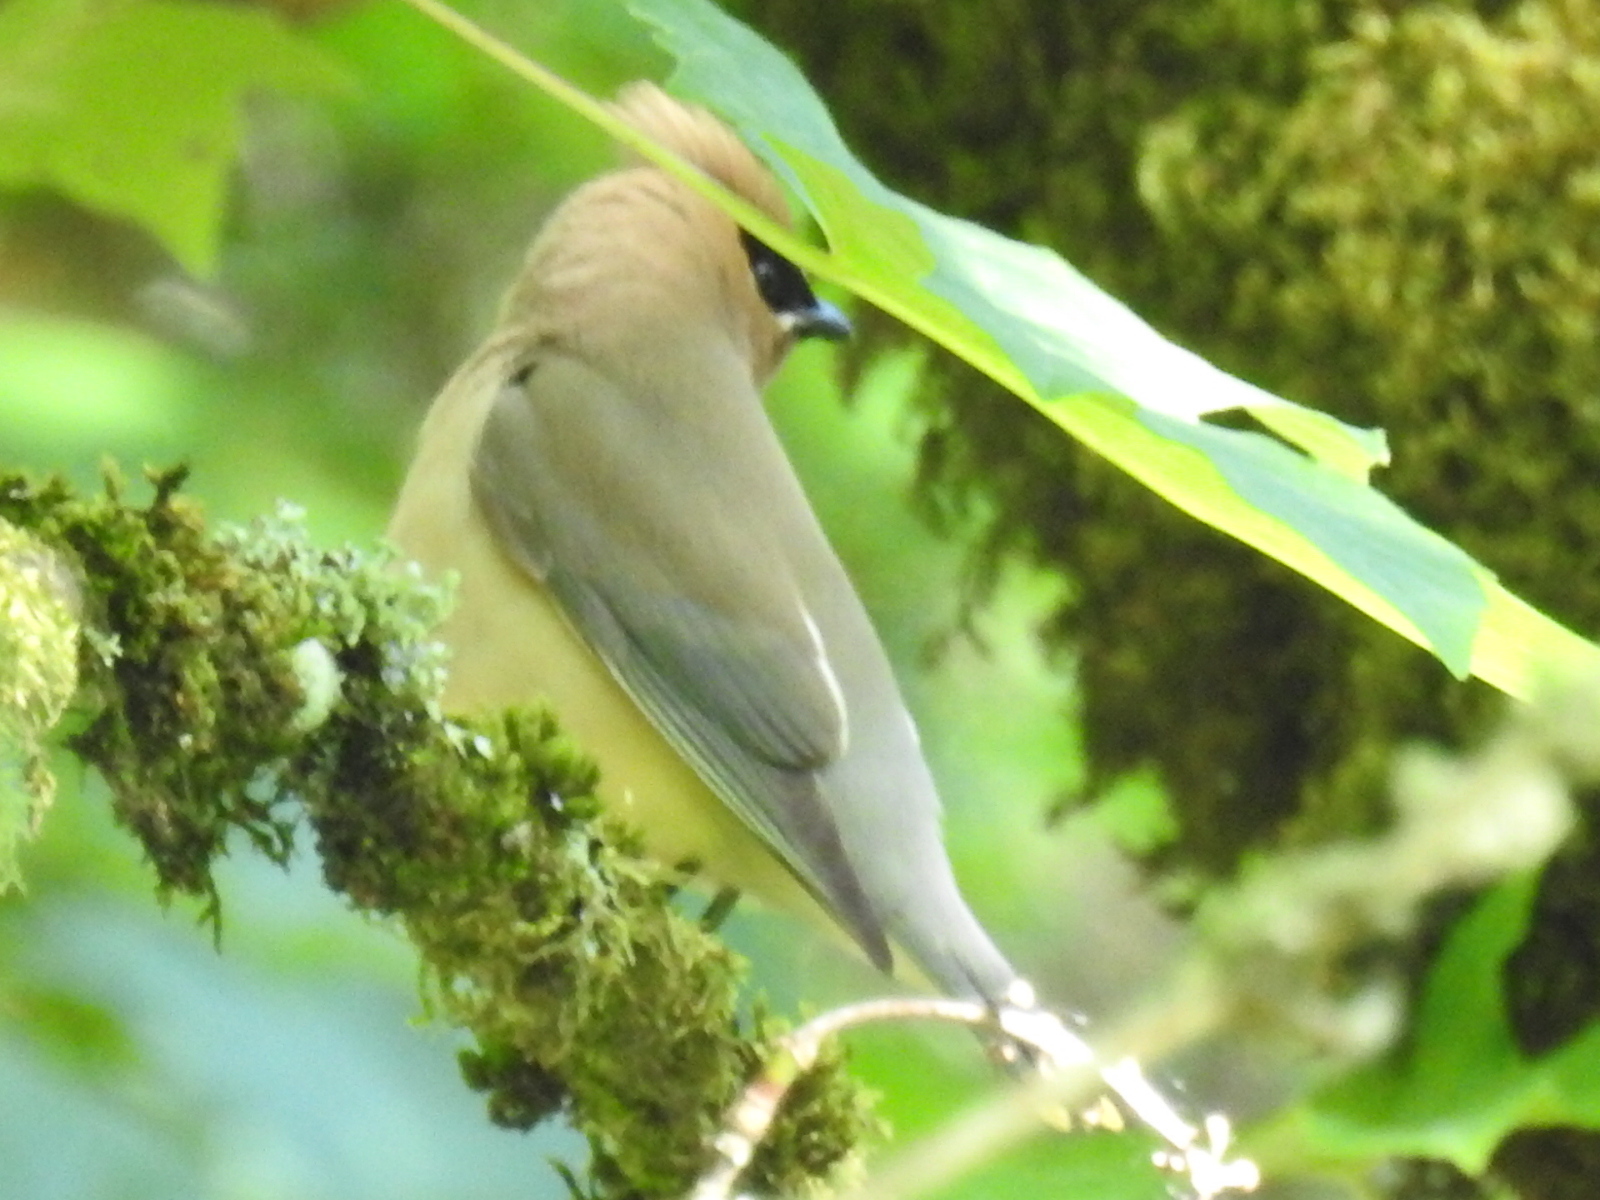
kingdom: Animalia
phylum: Chordata
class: Aves
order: Passeriformes
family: Bombycillidae
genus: Bombycilla
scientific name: Bombycilla cedrorum
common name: Cedar waxwing
